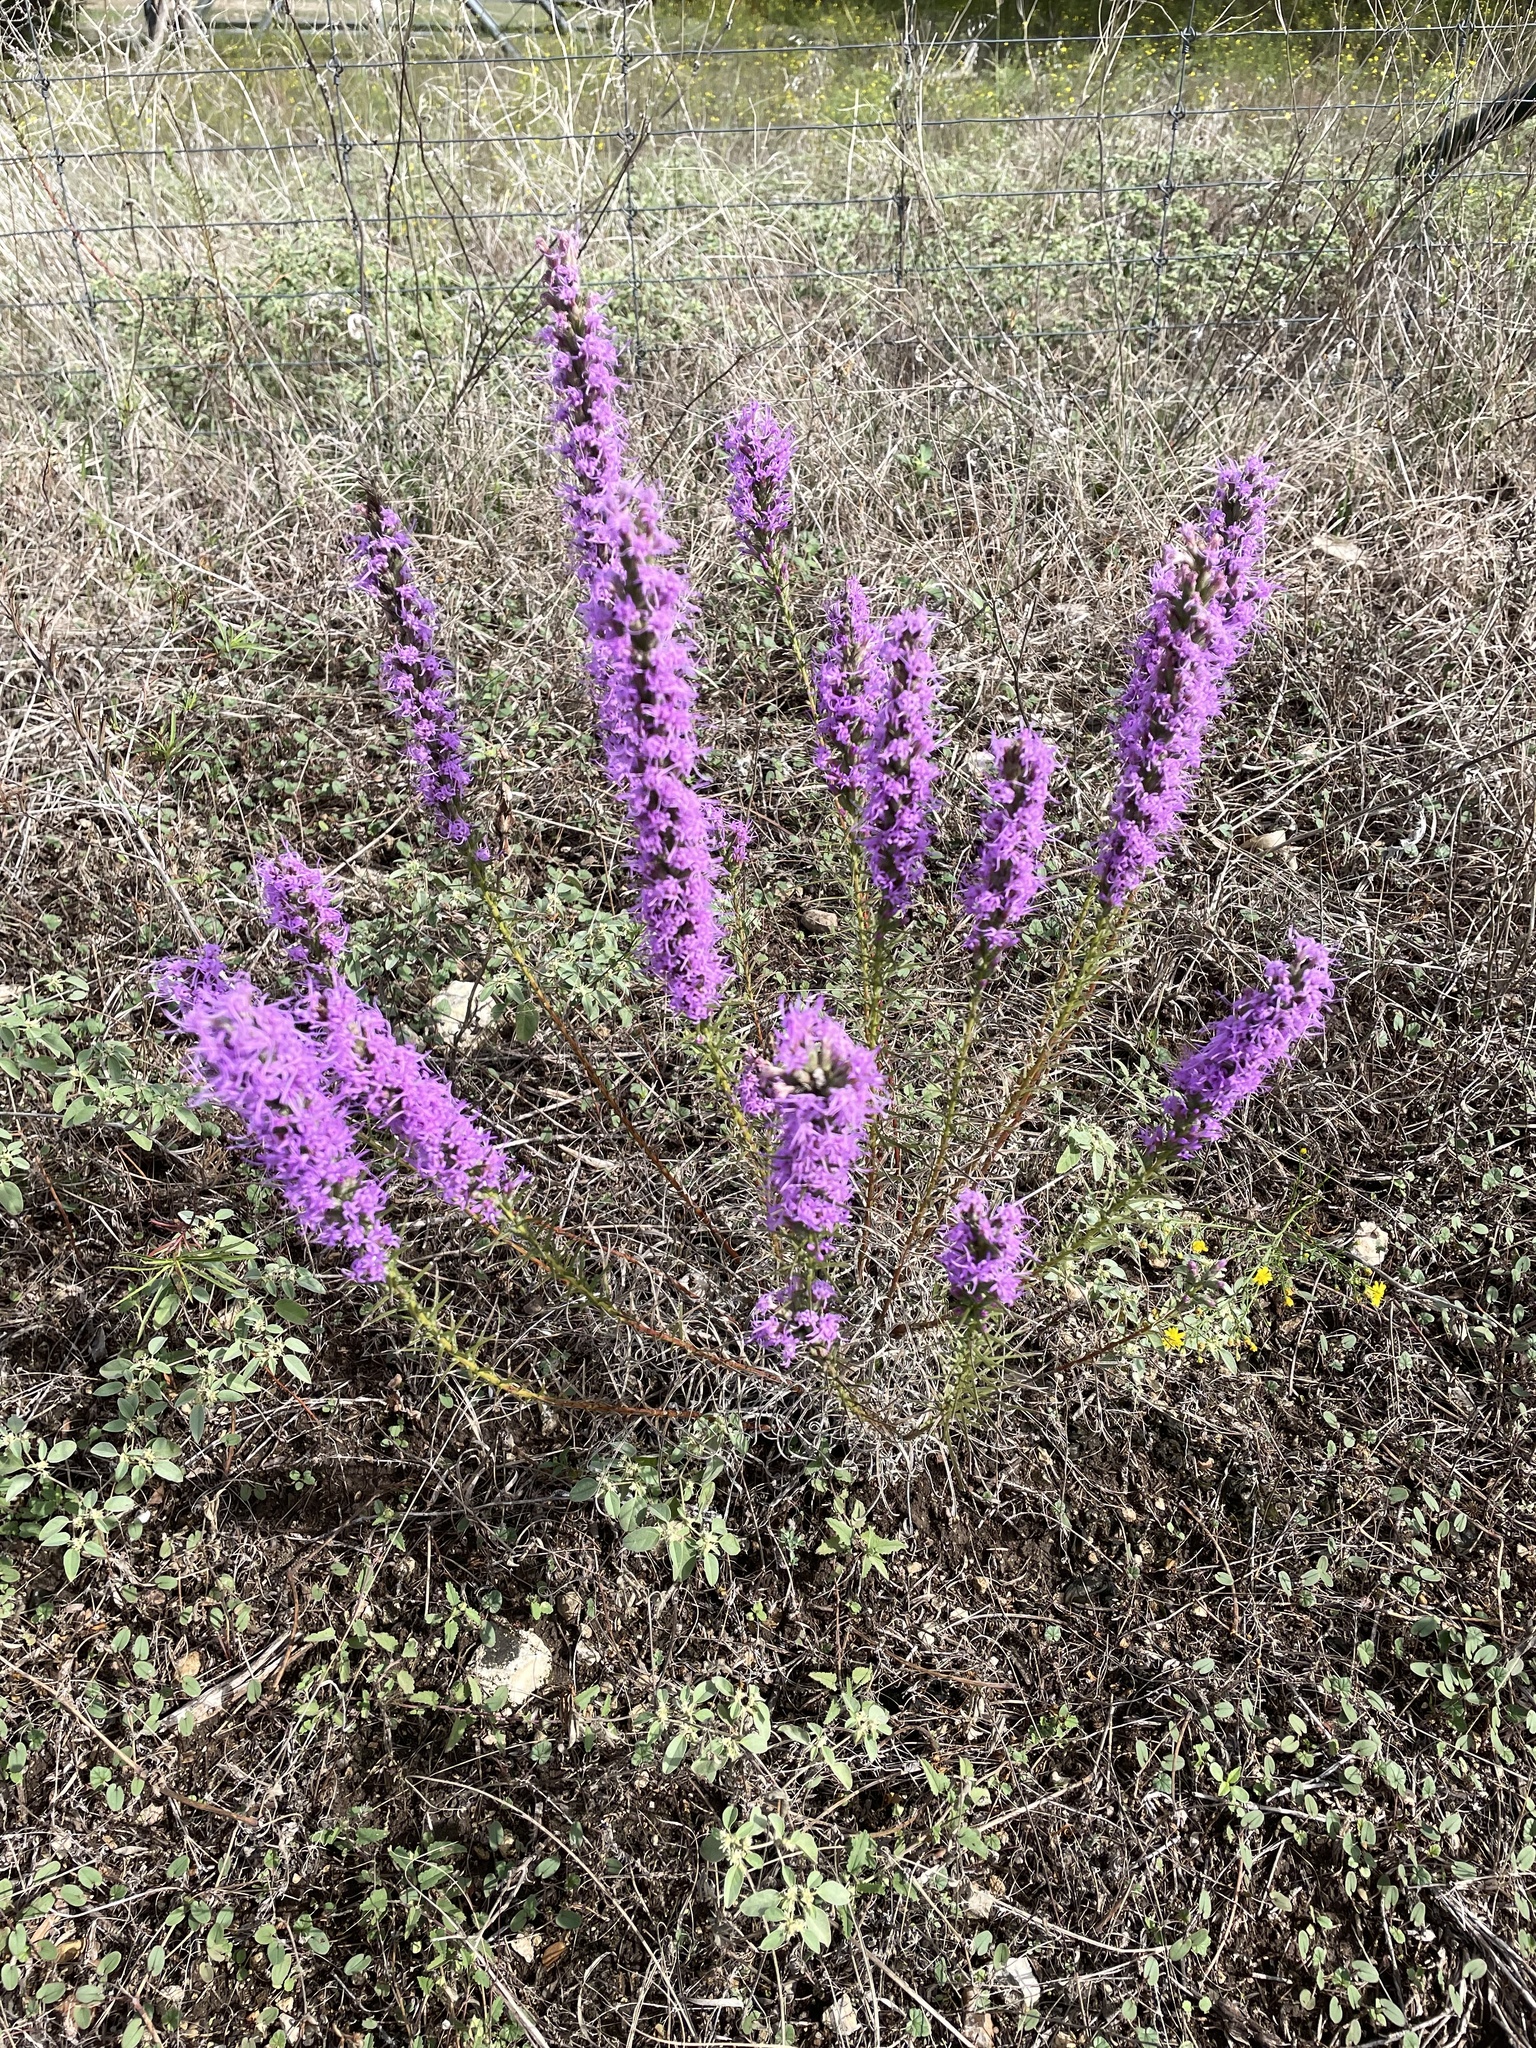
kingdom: Plantae
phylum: Tracheophyta
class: Magnoliopsida
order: Asterales
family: Asteraceae
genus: Liatris
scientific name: Liatris punctata
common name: Dotted gayfeather
